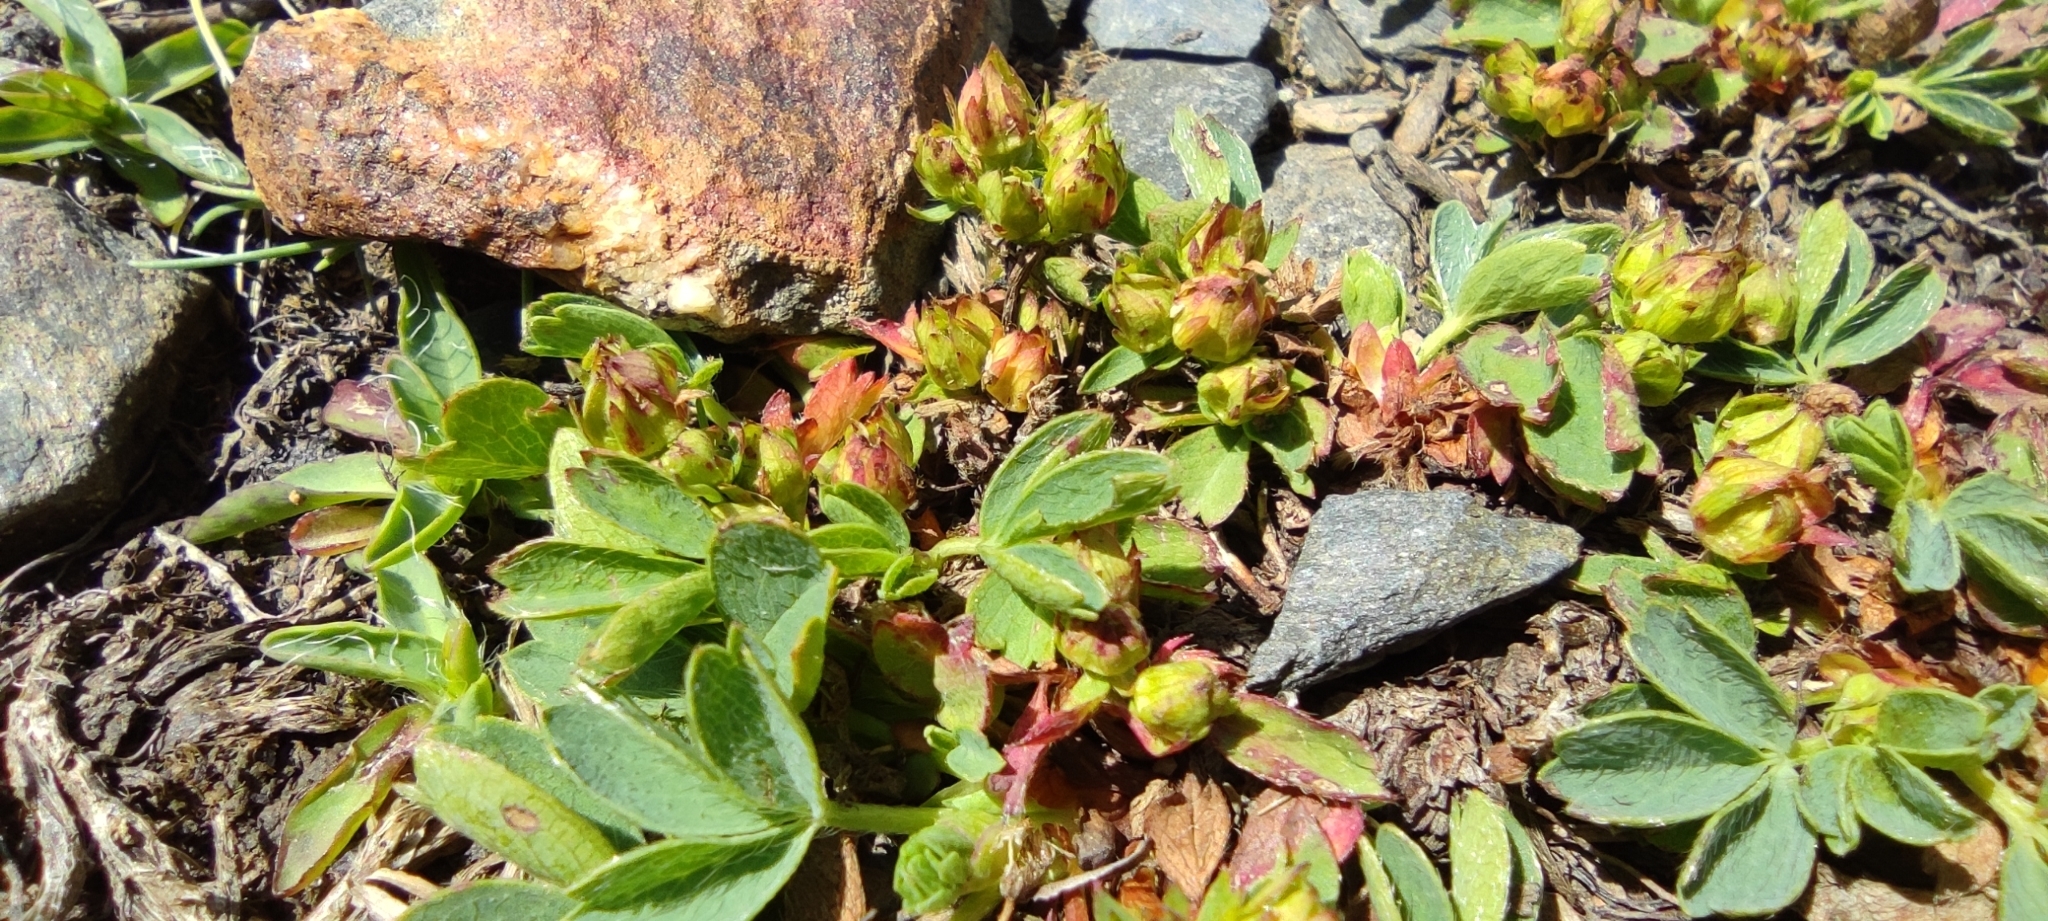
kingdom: Plantae
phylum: Tracheophyta
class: Magnoliopsida
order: Rosales
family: Rosaceae
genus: Sibbaldia
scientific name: Sibbaldia procumbens
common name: Creeping sibbaldia
